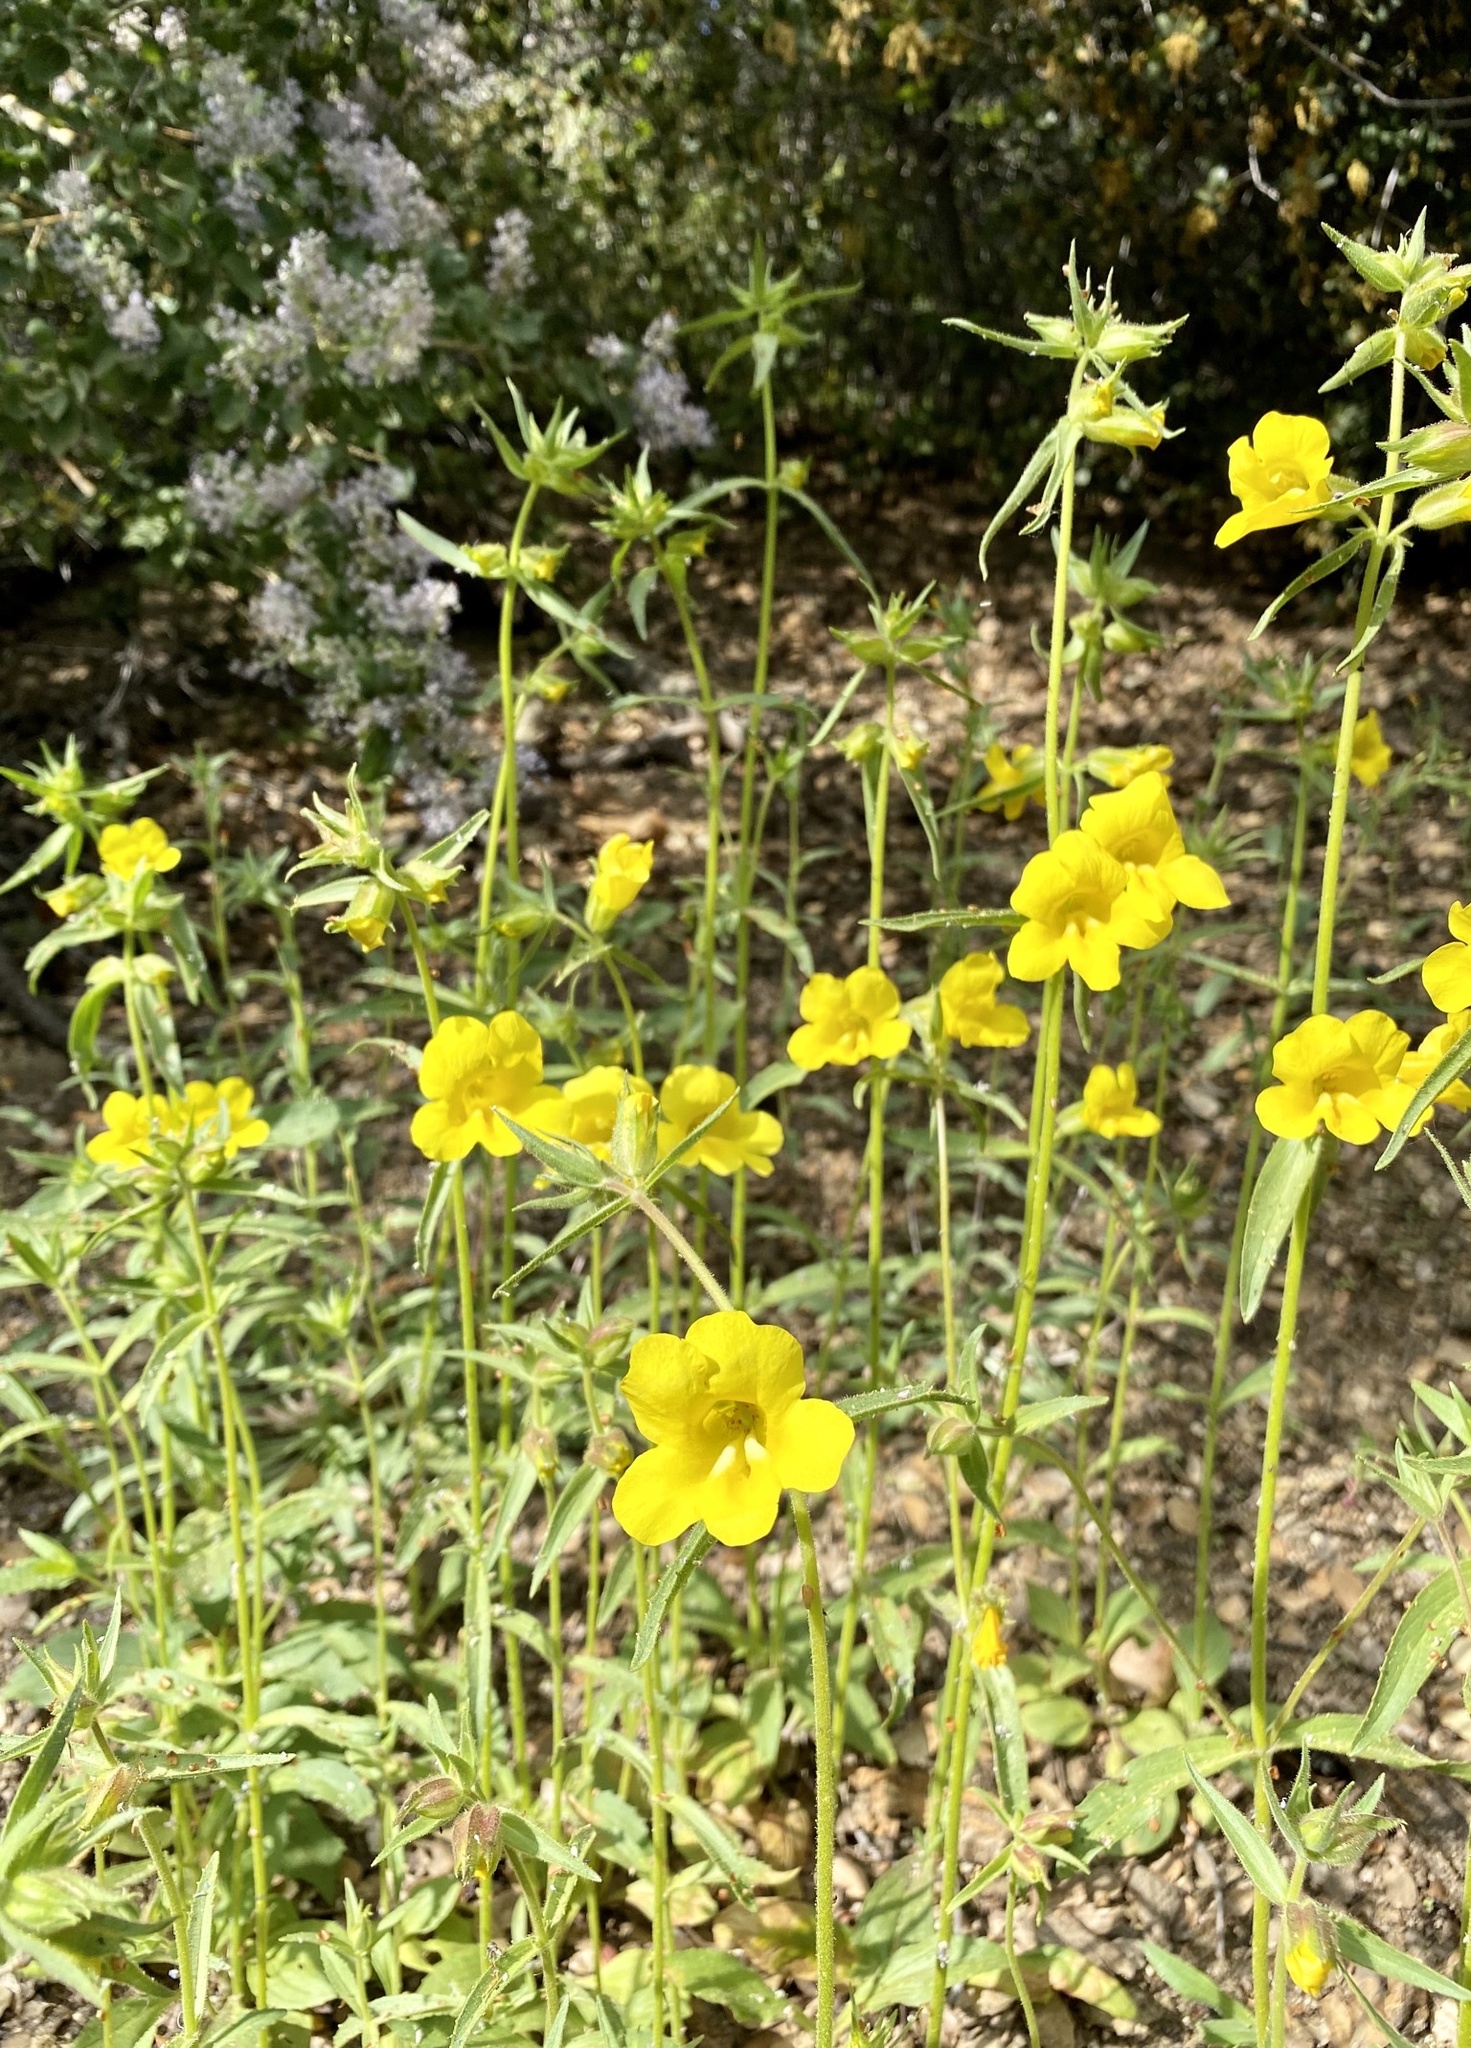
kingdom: Plantae
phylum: Tracheophyta
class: Magnoliopsida
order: Lamiales
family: Phrymaceae
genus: Diplacus
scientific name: Diplacus brevipes
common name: Wide-throat yellow monkey-flower
